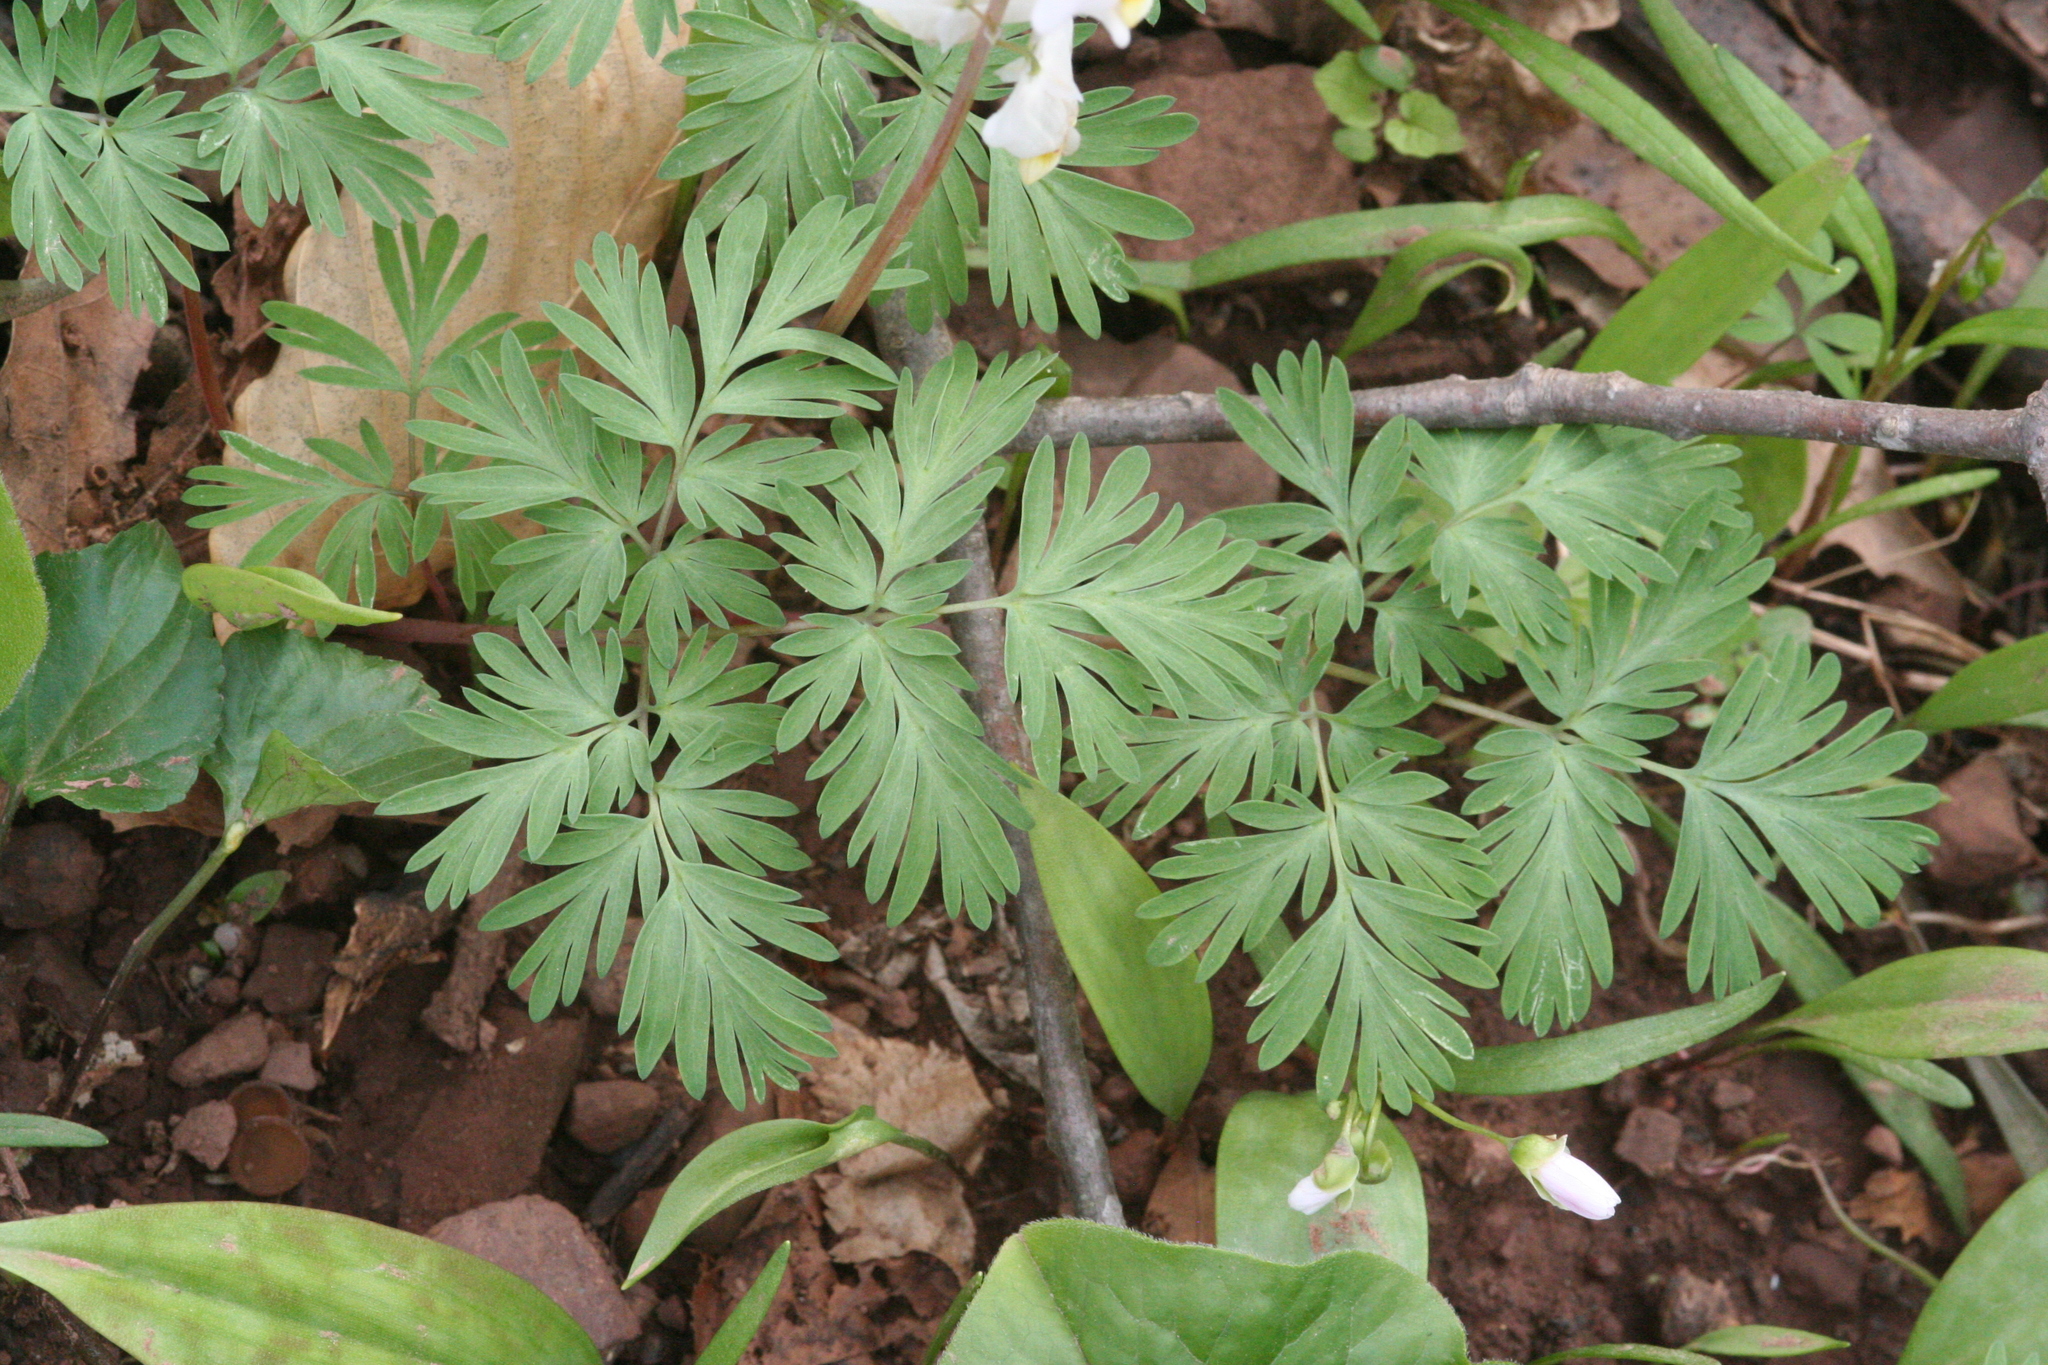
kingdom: Plantae
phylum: Tracheophyta
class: Magnoliopsida
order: Ranunculales
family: Papaveraceae
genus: Dicentra
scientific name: Dicentra cucullaria
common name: Dutchman's breeches
